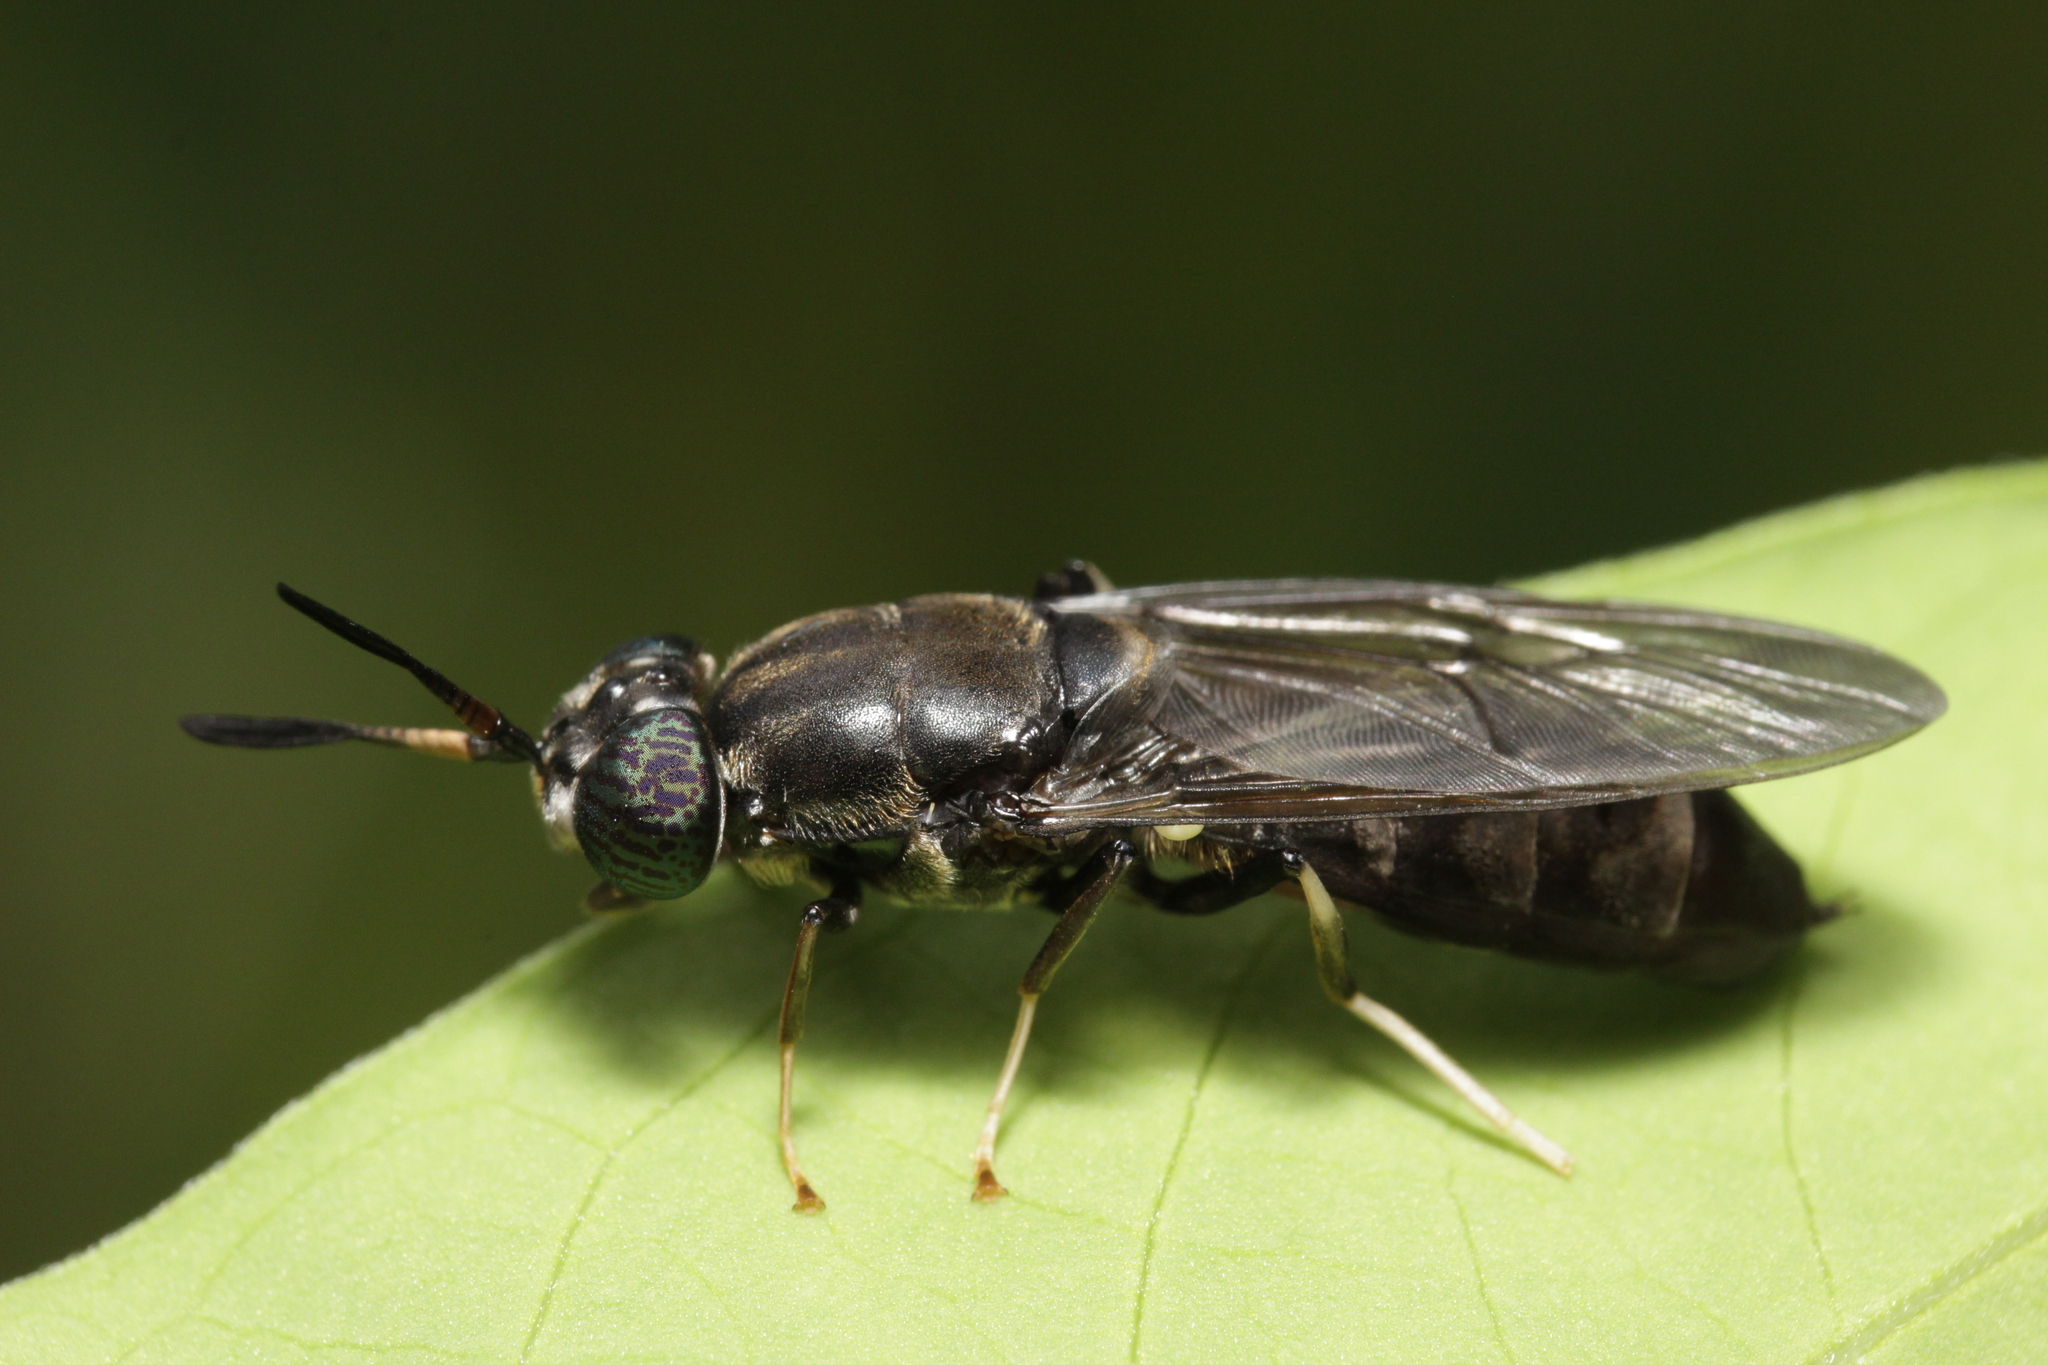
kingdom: Animalia
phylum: Arthropoda
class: Insecta
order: Diptera
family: Stratiomyidae
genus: Hermetia
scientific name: Hermetia illucens
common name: Black soldier fly
